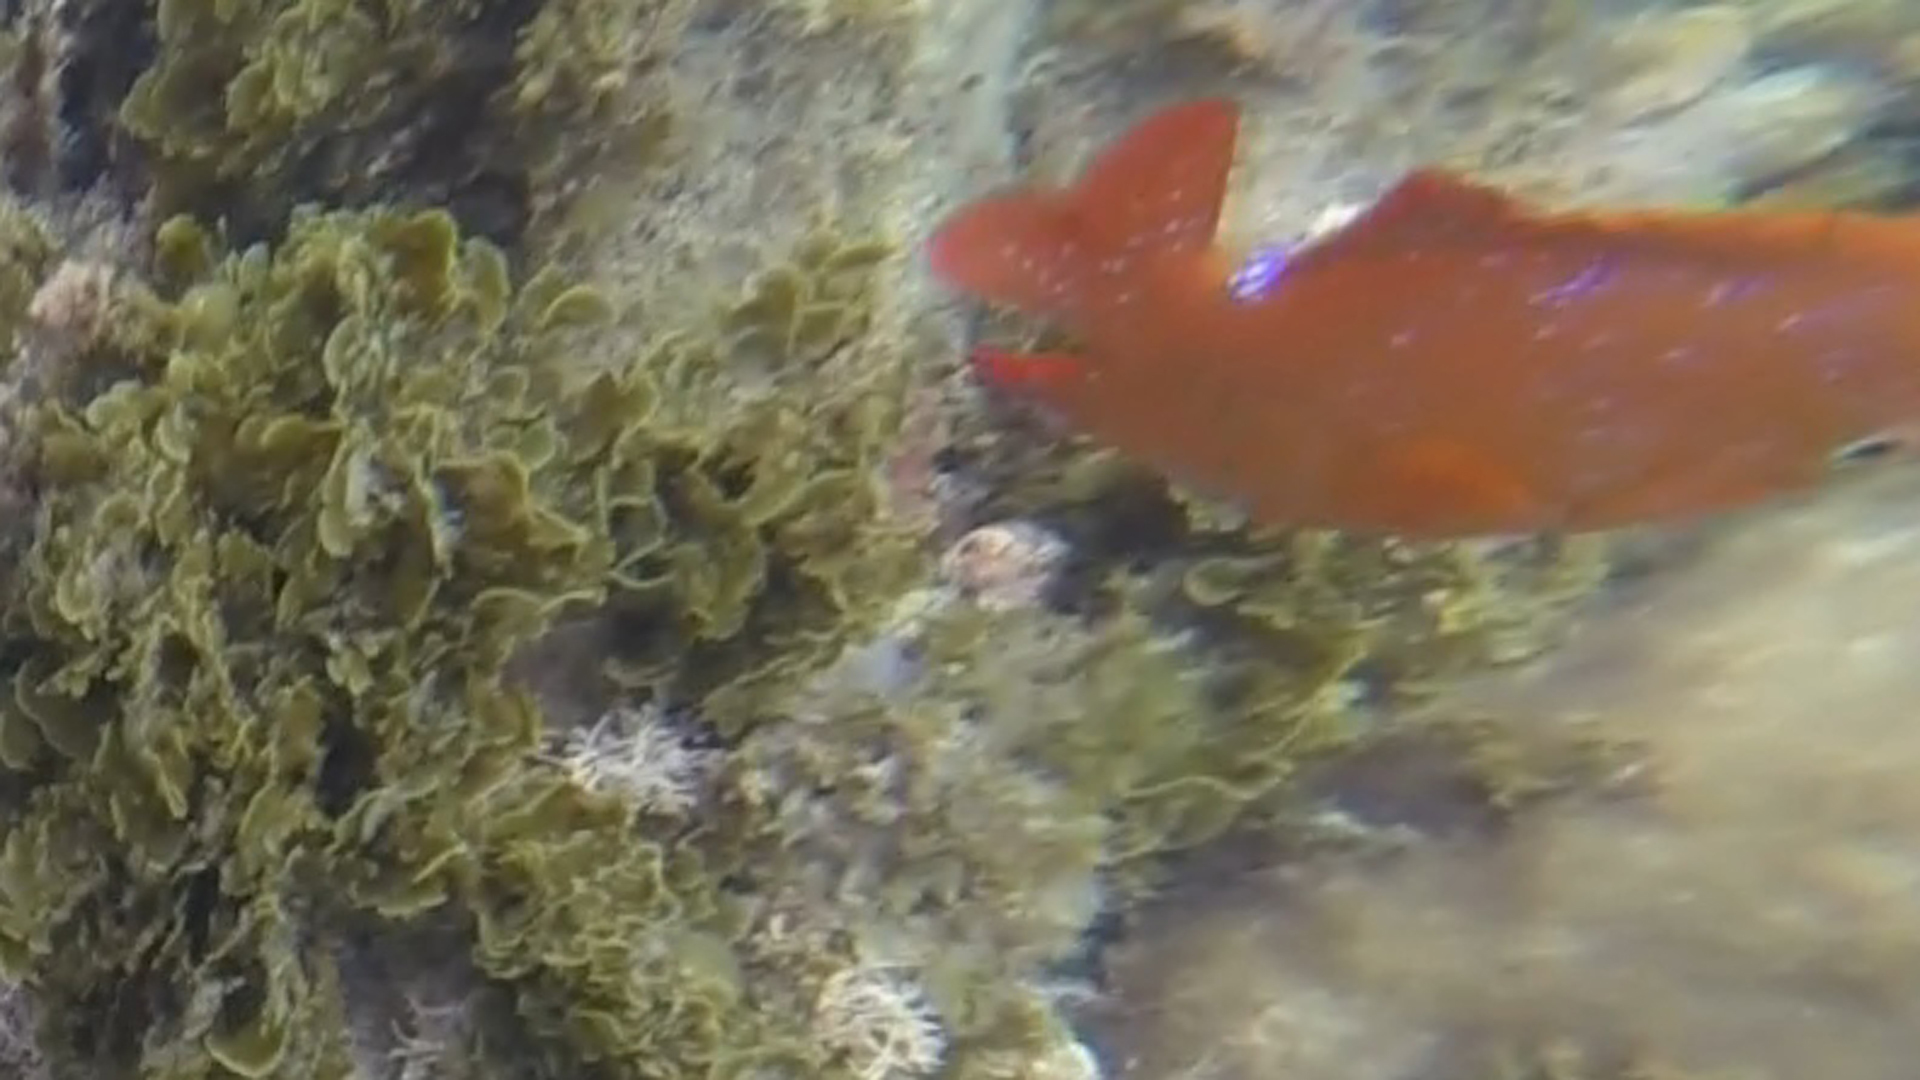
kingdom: Animalia
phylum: Chordata
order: Perciformes
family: Pomacentridae
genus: Hypsypops
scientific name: Hypsypops rubicundus
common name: Garibaldi
